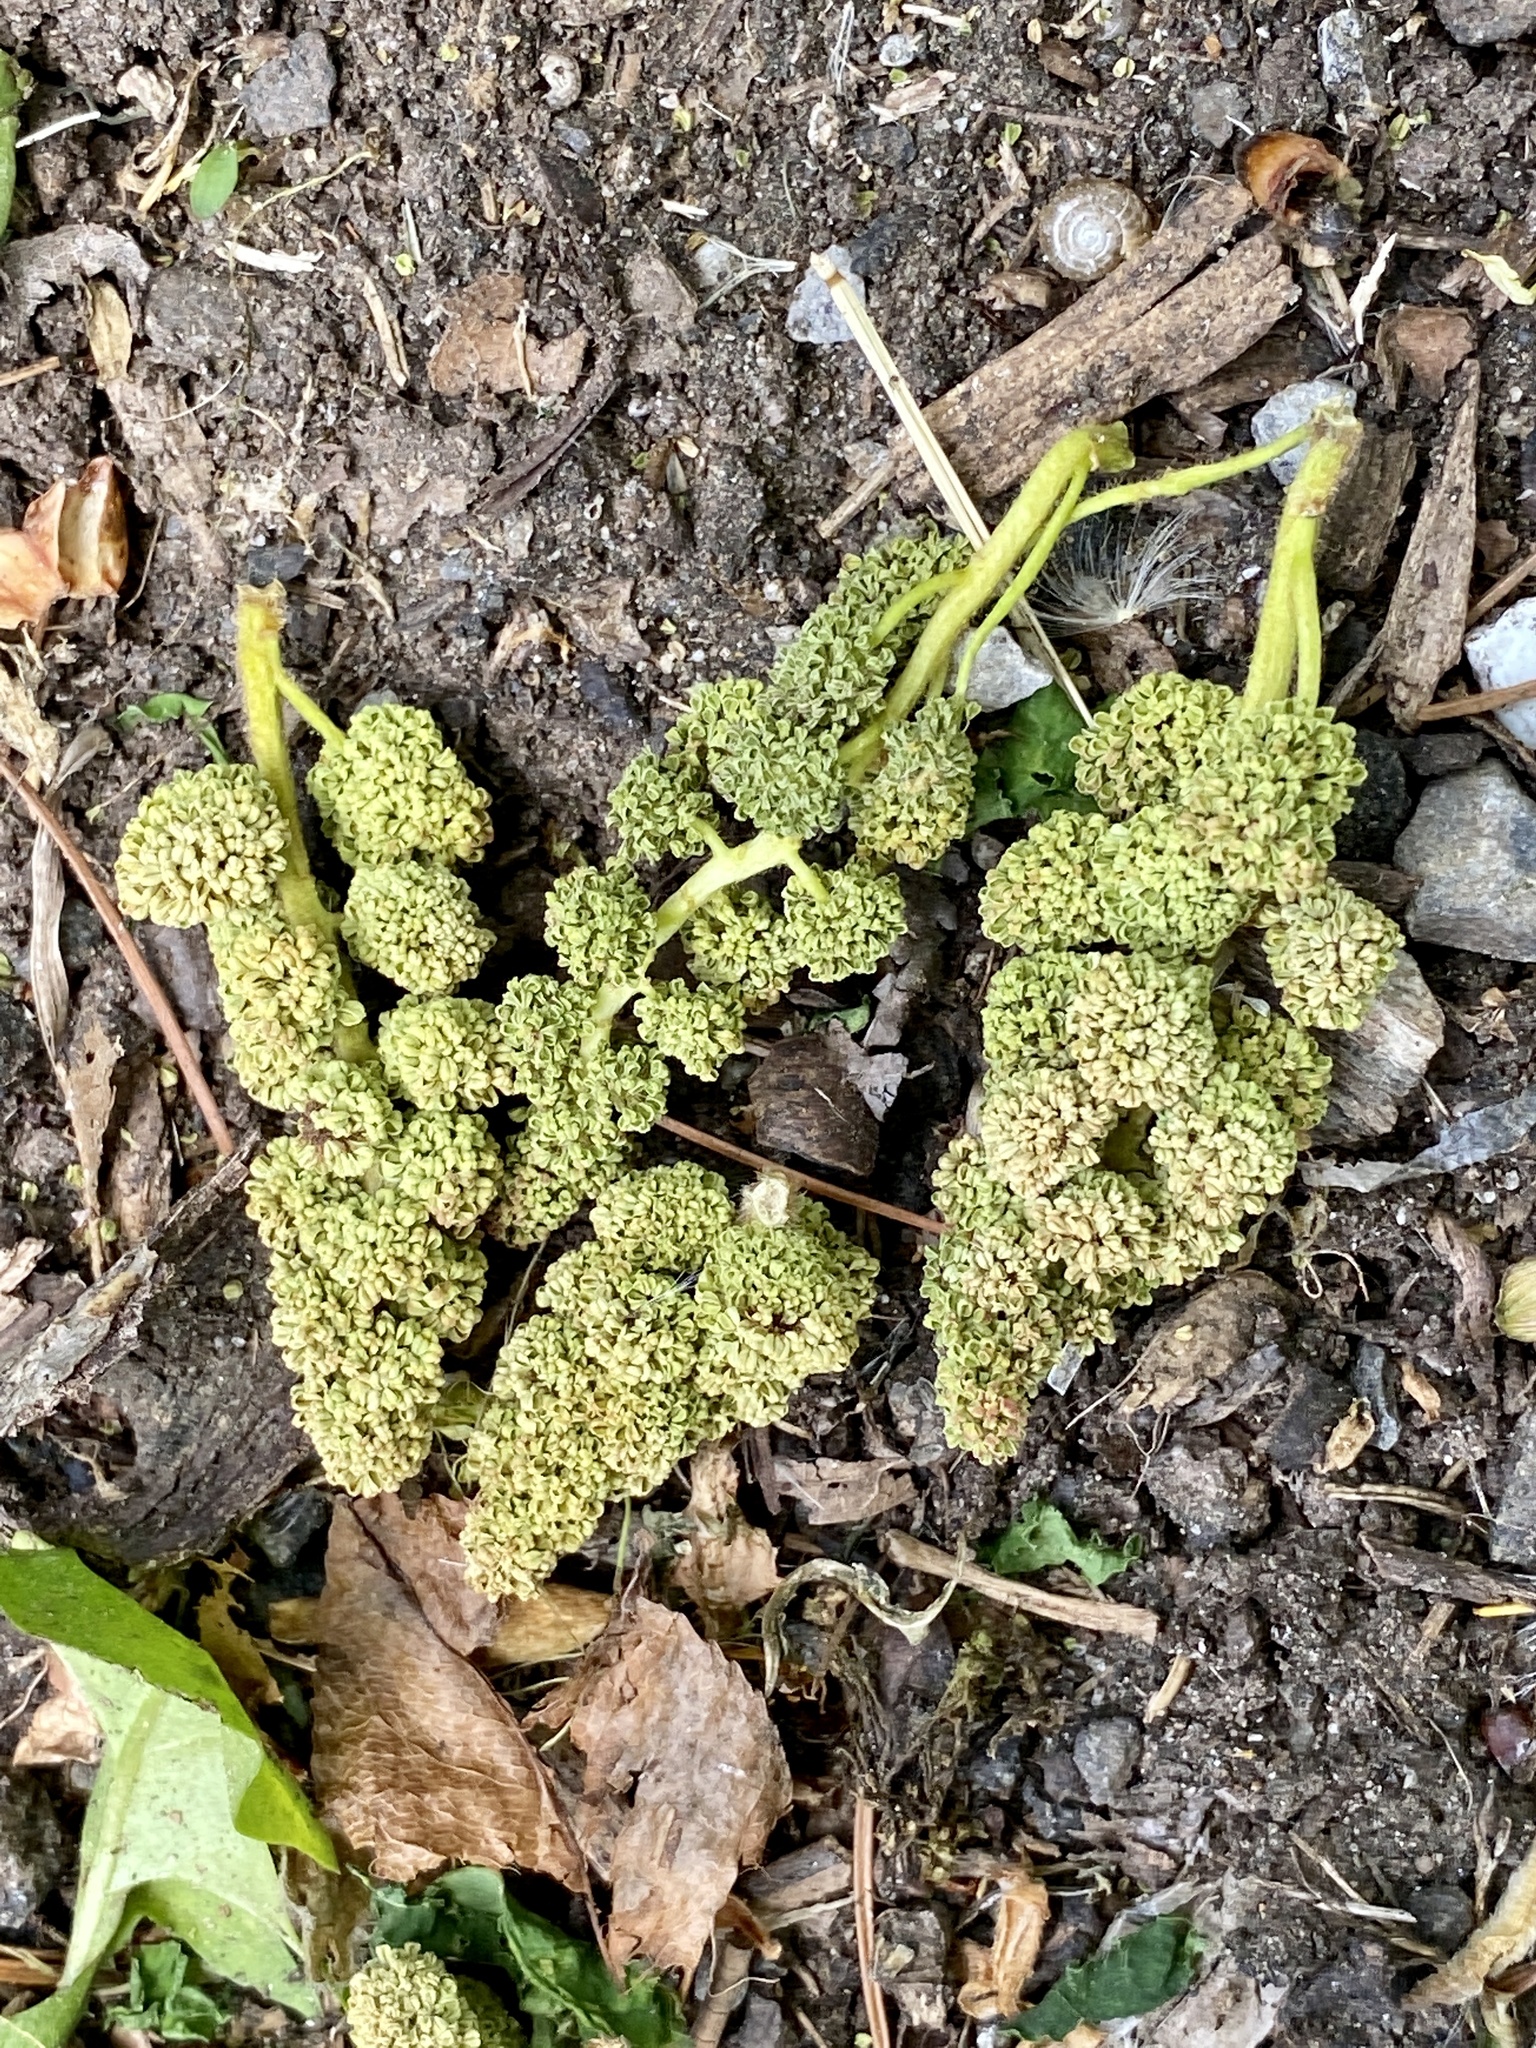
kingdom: Plantae
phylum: Tracheophyta
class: Magnoliopsida
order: Saxifragales
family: Altingiaceae
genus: Liquidambar
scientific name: Liquidambar styraciflua
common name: Sweet gum
